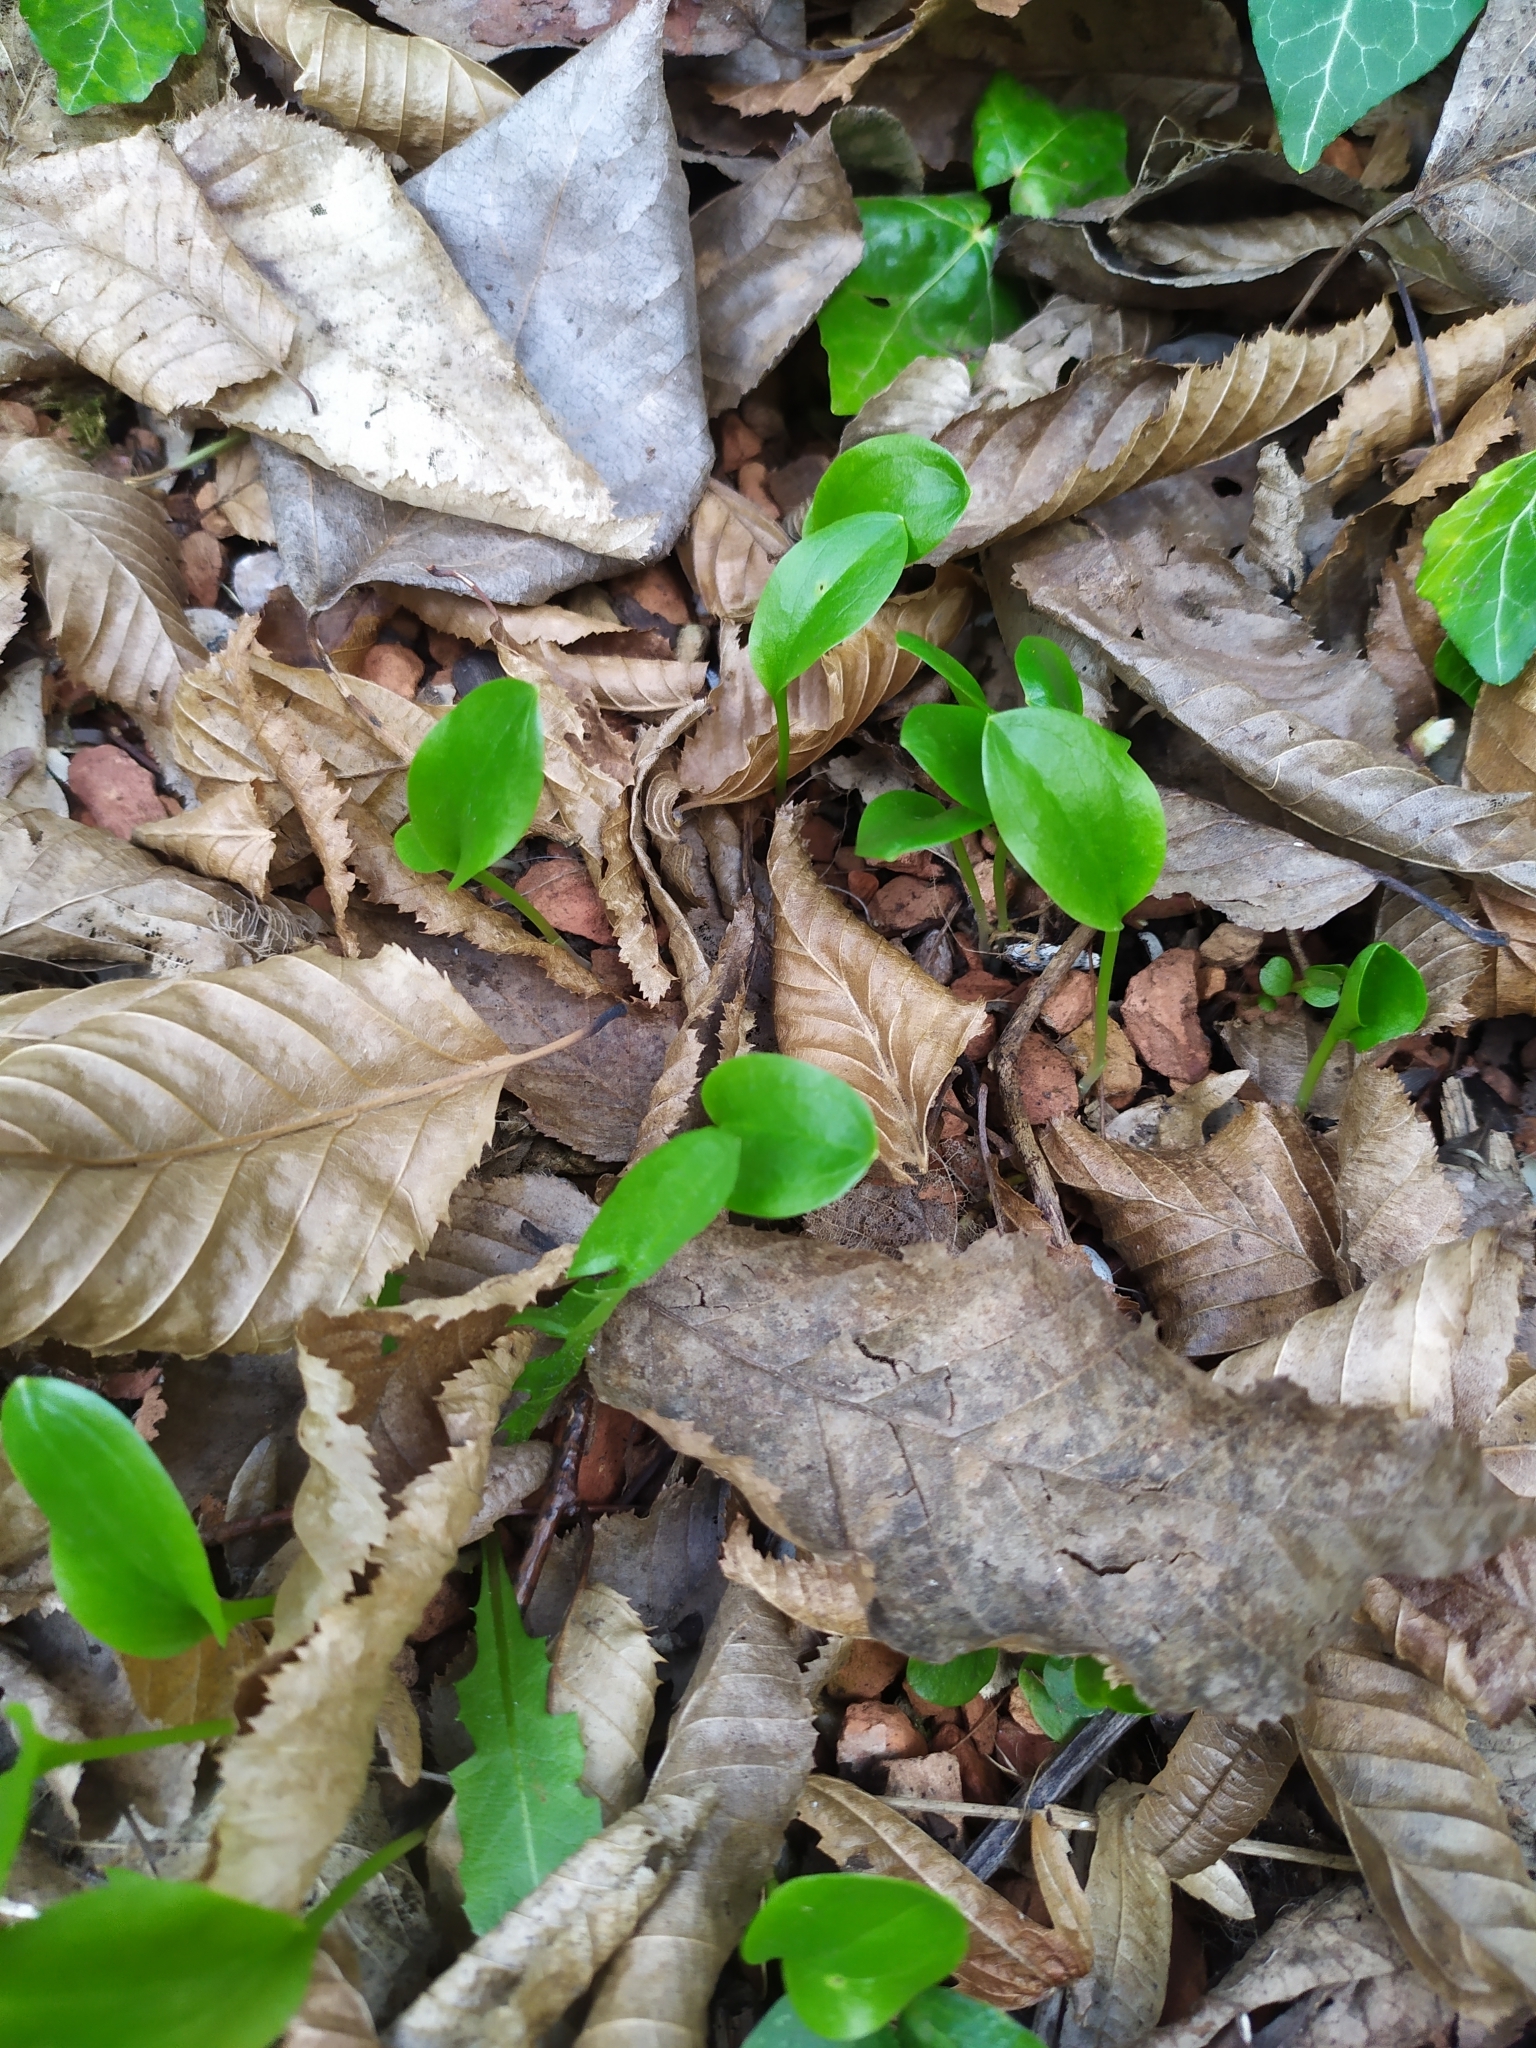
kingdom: Plantae
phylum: Tracheophyta
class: Liliopsida
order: Alismatales
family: Araceae
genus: Arum
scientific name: Arum cylindraceum
